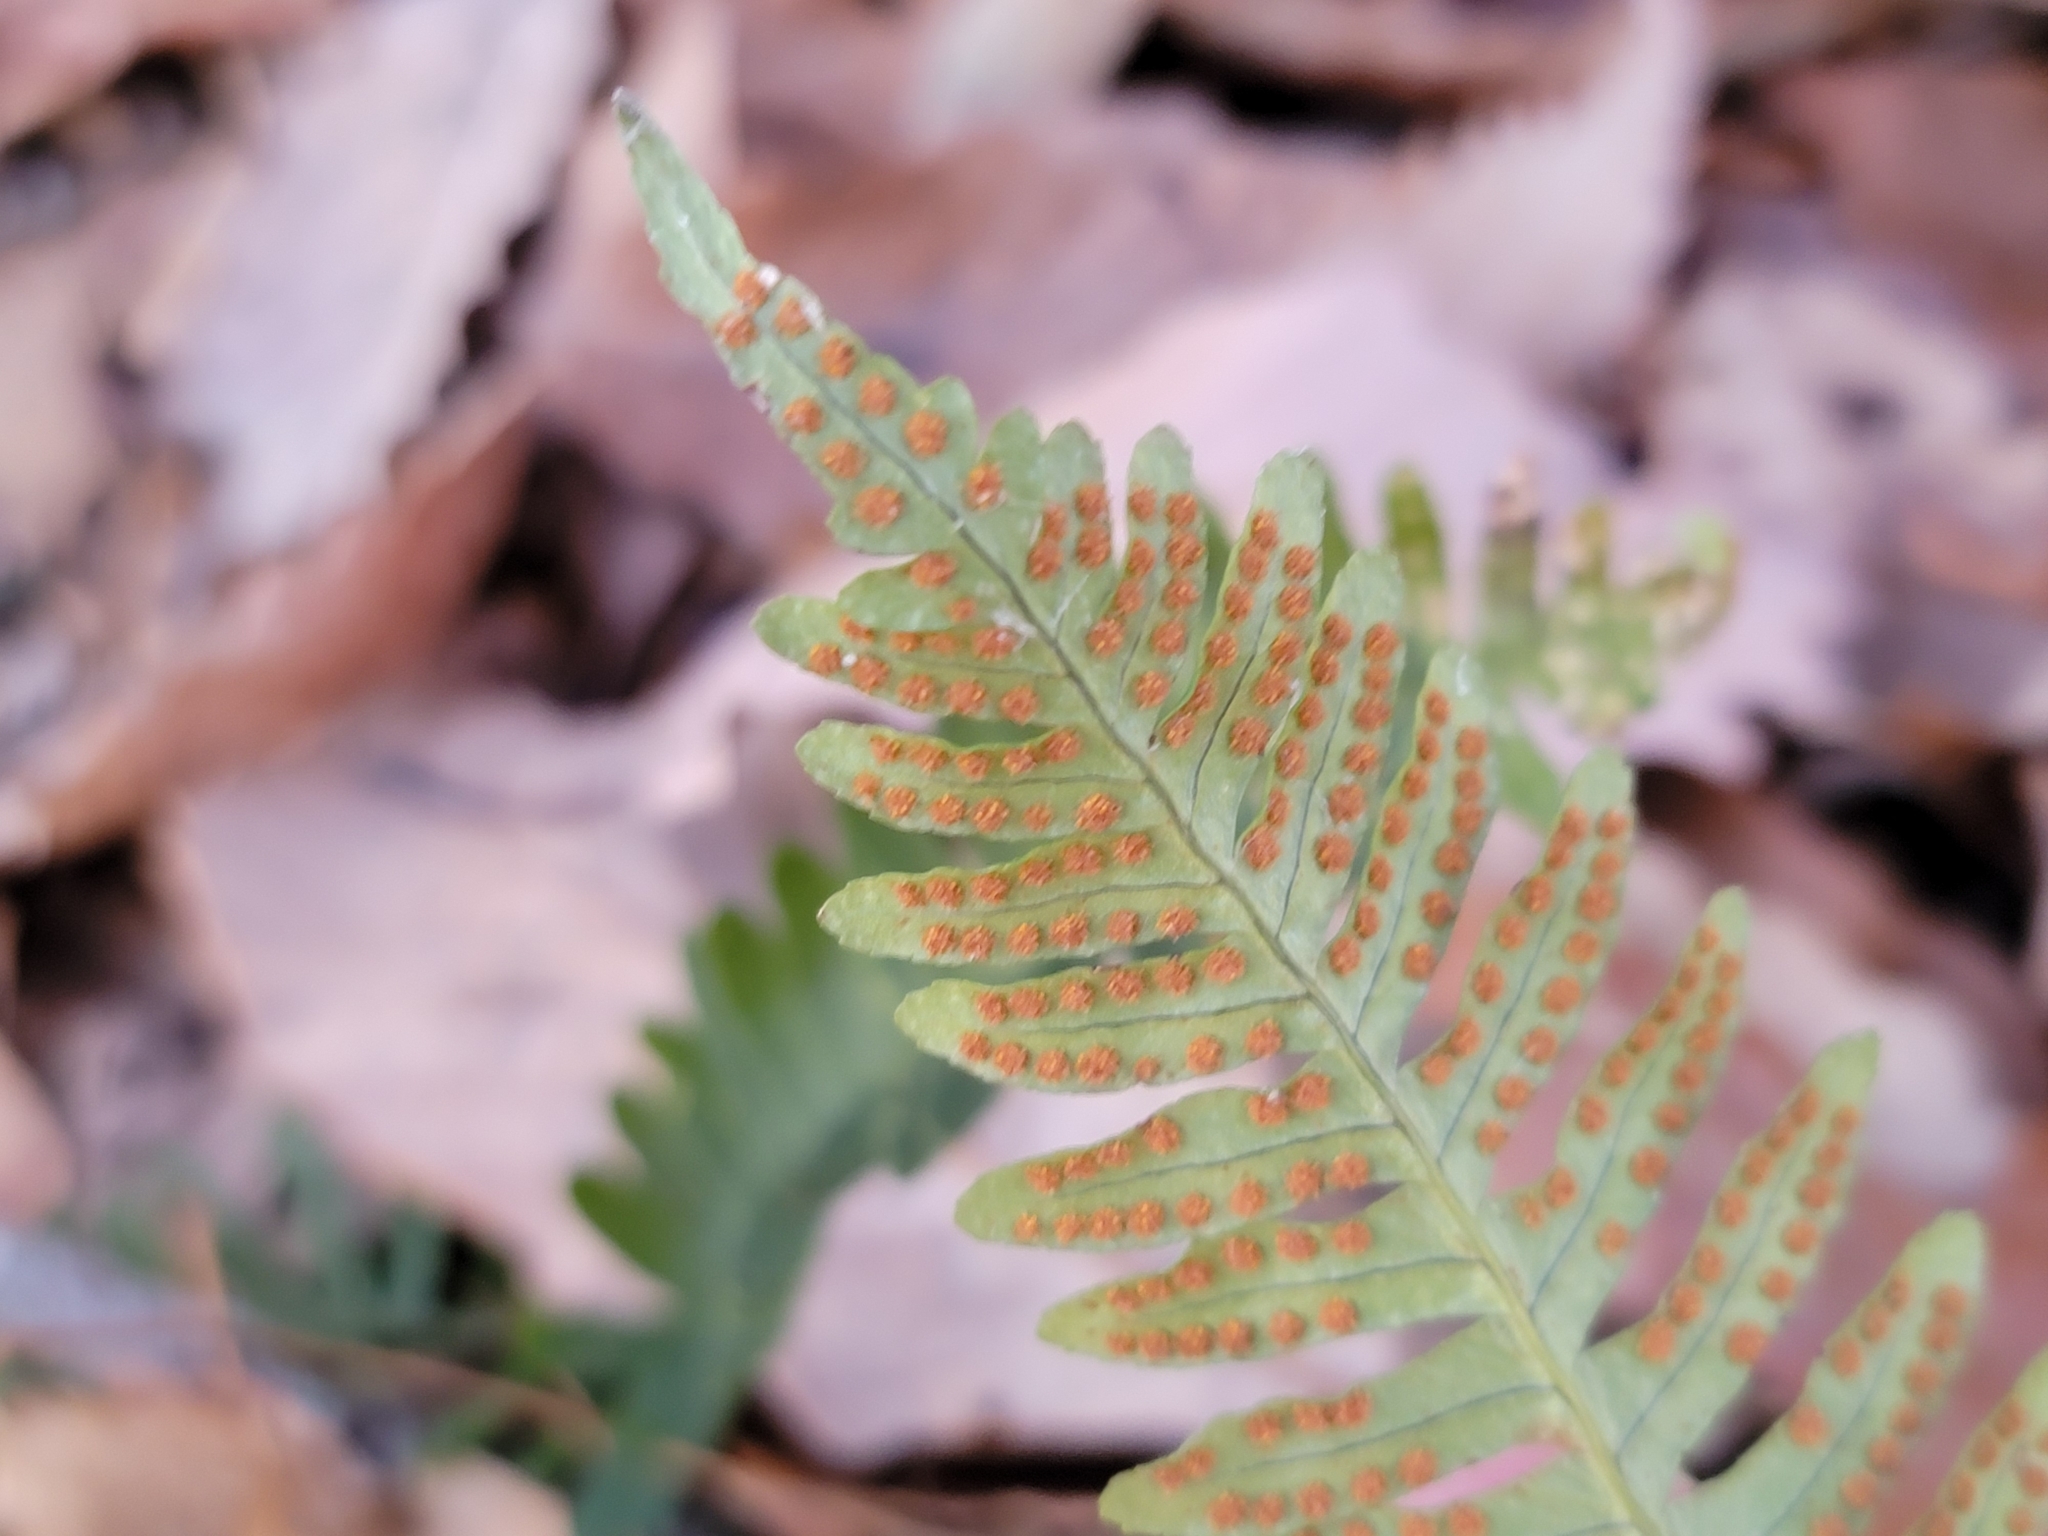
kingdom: Plantae
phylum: Tracheophyta
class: Polypodiopsida
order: Polypodiales
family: Polypodiaceae
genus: Polypodium
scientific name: Polypodium virginianum
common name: American wall fern
